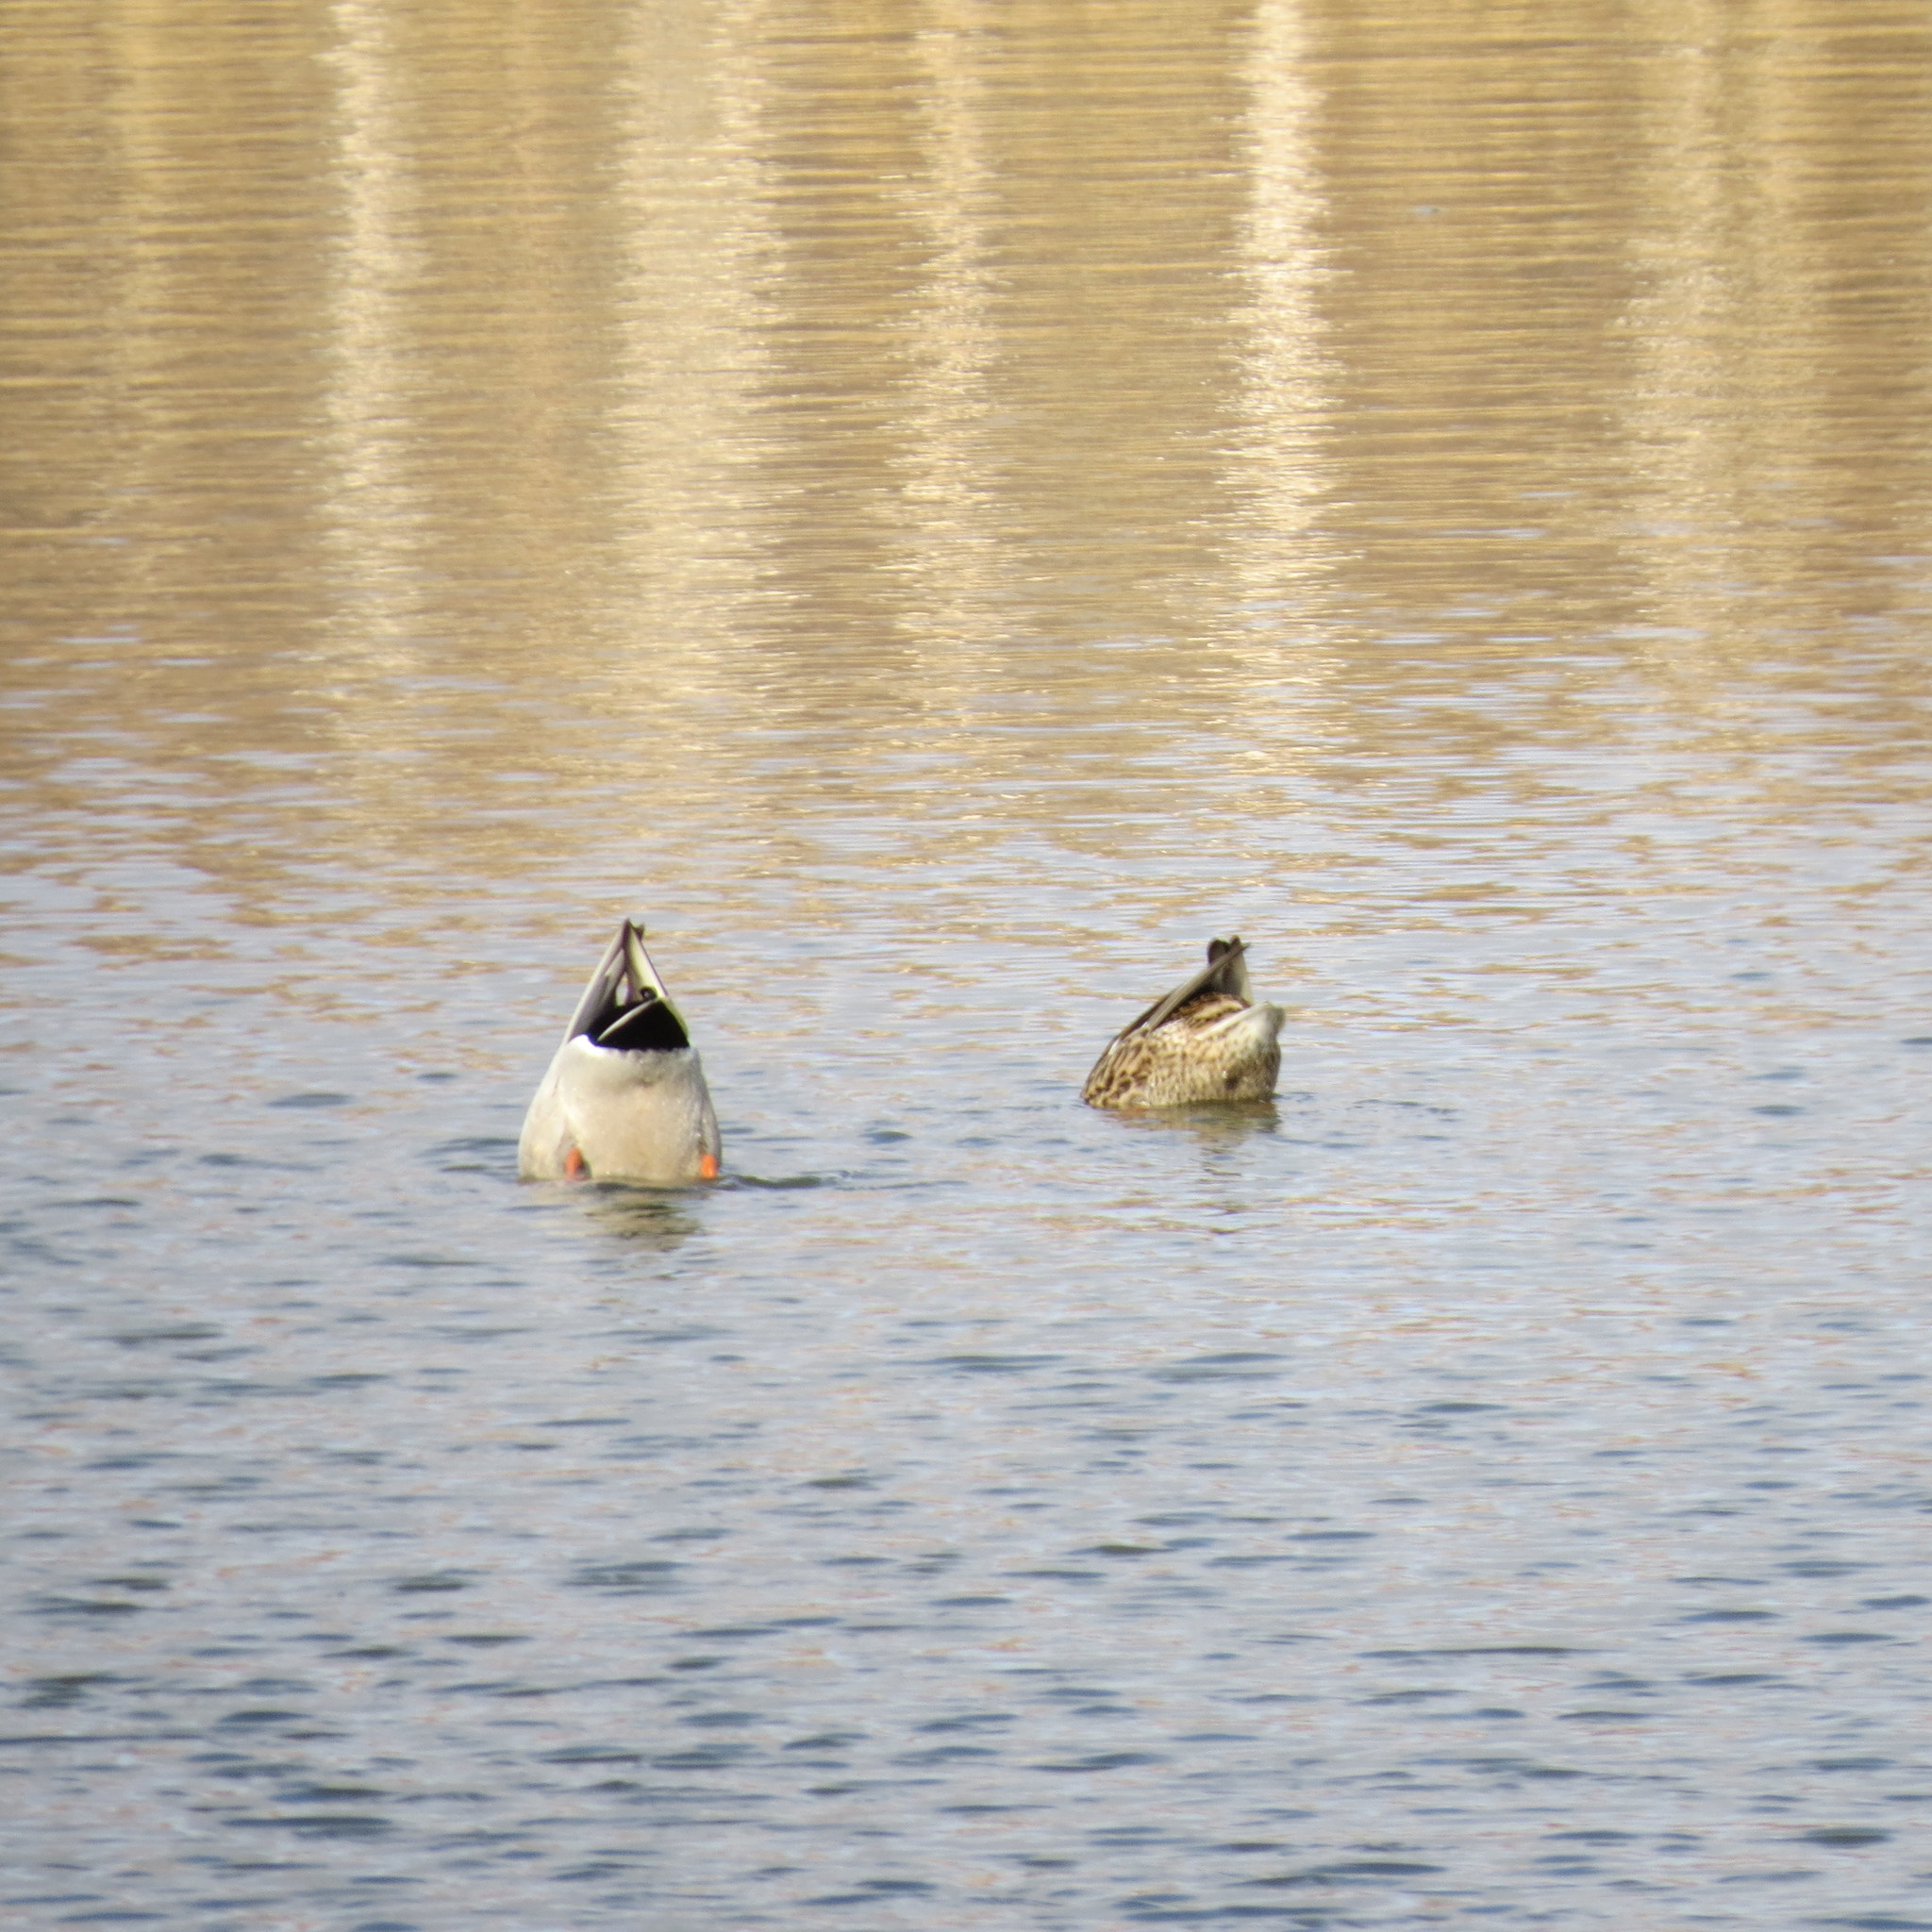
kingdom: Animalia
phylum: Chordata
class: Aves
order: Anseriformes
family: Anatidae
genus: Anas
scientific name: Anas platyrhynchos
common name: Mallard
